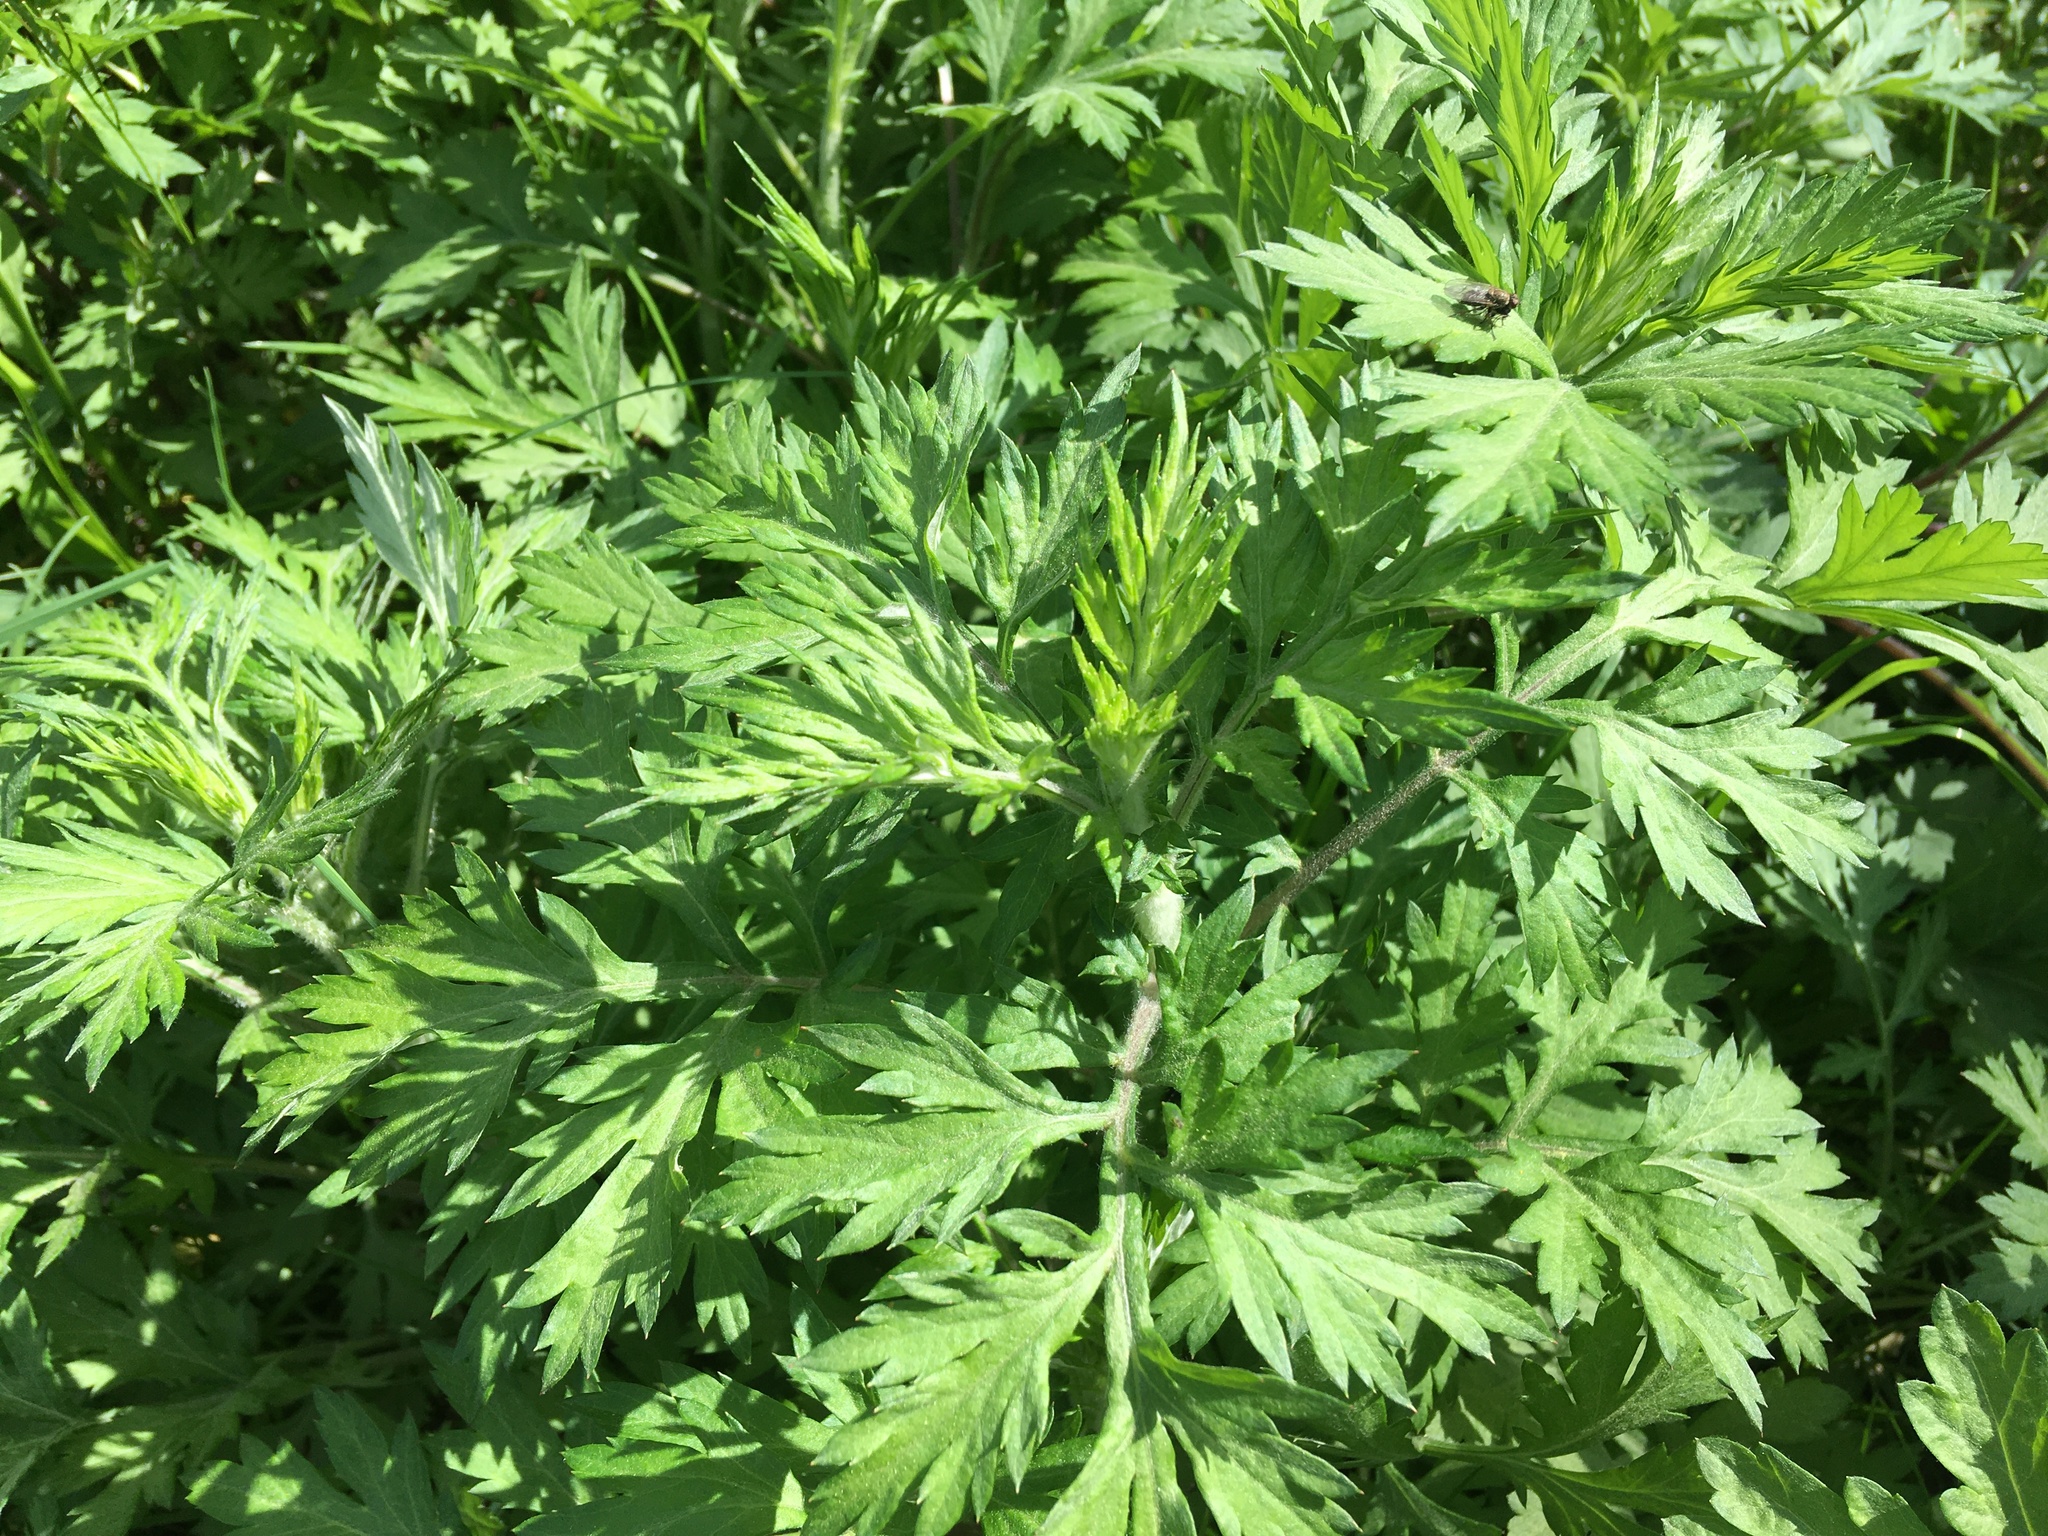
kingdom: Plantae
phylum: Tracheophyta
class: Magnoliopsida
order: Asterales
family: Asteraceae
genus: Artemisia
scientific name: Artemisia vulgaris
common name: Mugwort
